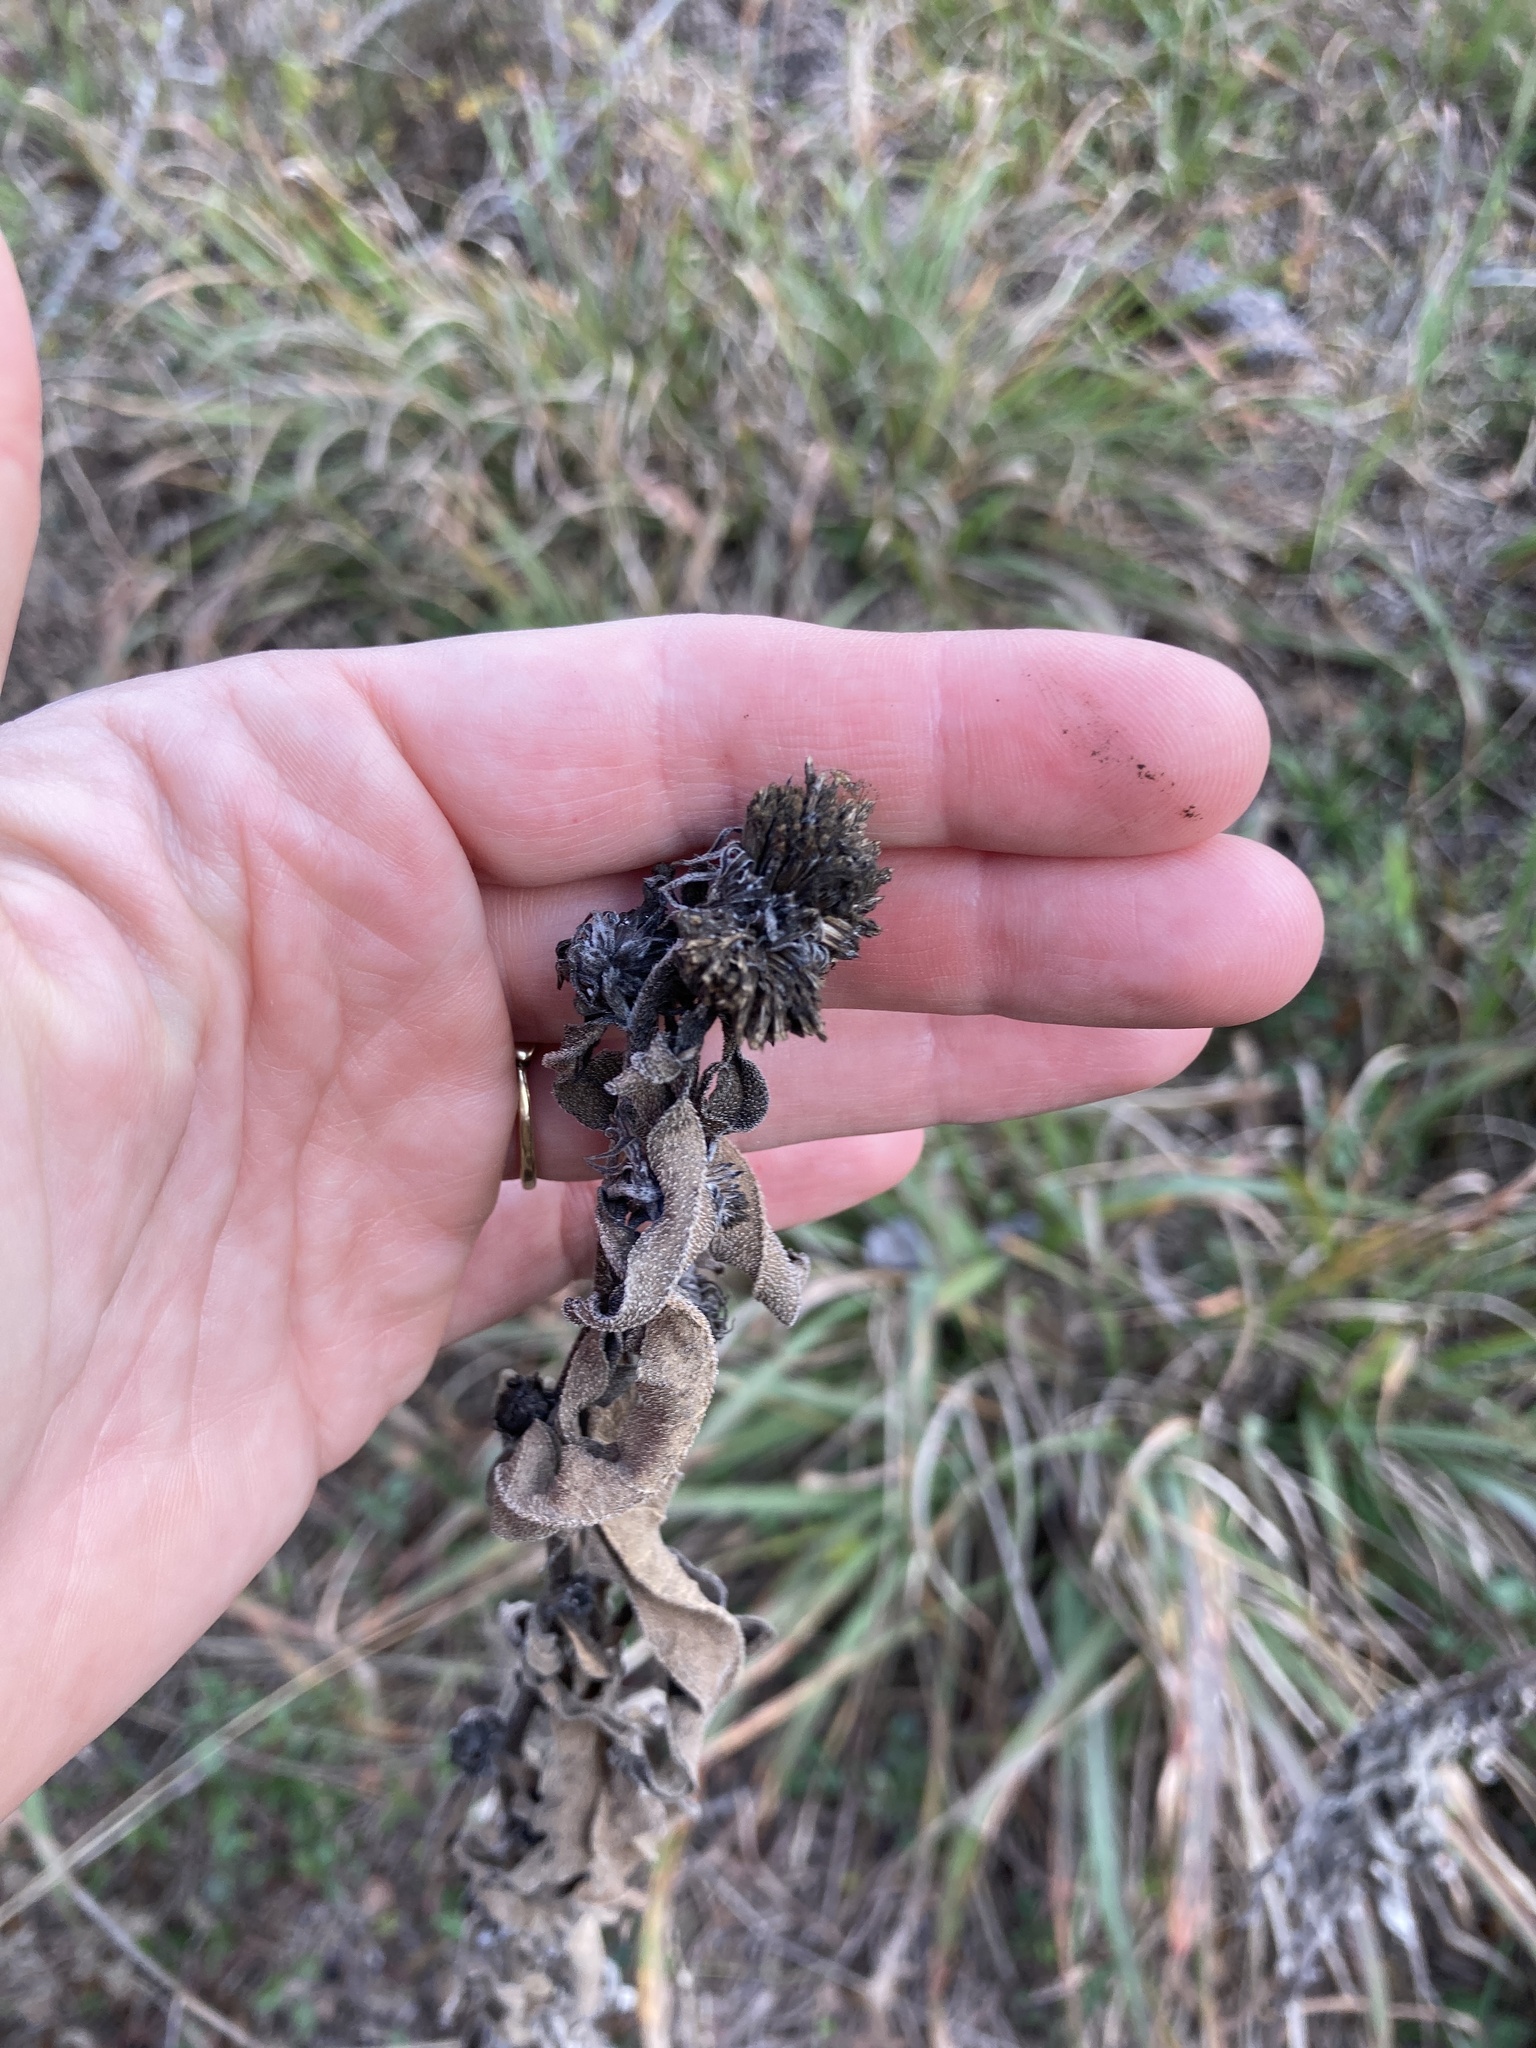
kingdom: Plantae
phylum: Tracheophyta
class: Magnoliopsida
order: Asterales
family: Asteraceae
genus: Helianthus
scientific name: Helianthus maximiliani
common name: Maximilian's sunflower
